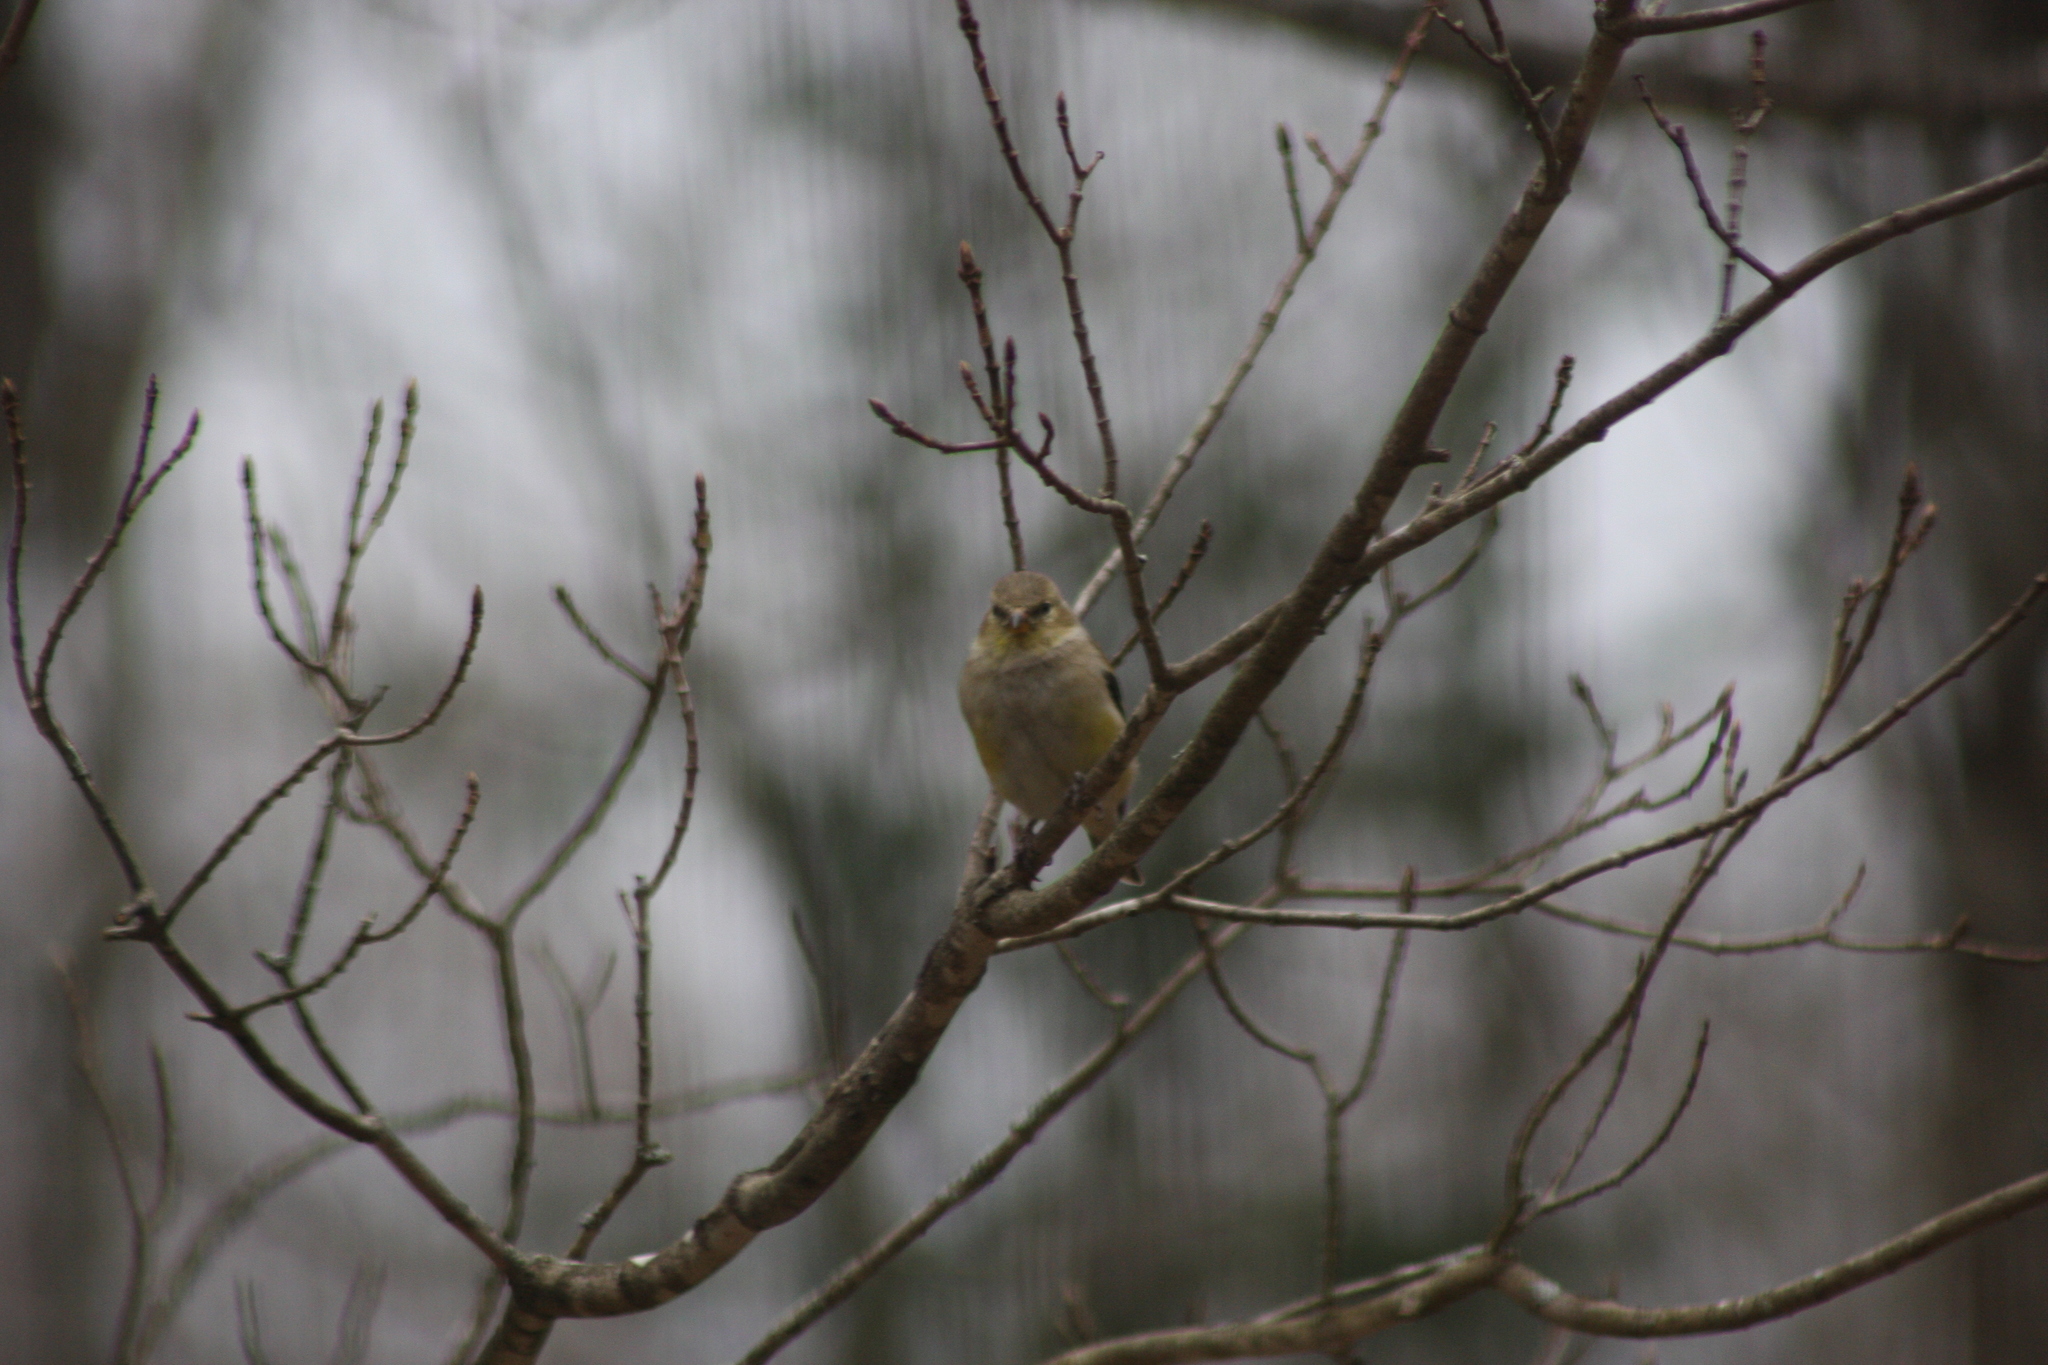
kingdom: Animalia
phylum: Chordata
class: Aves
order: Passeriformes
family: Fringillidae
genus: Spinus
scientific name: Spinus tristis
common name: American goldfinch
